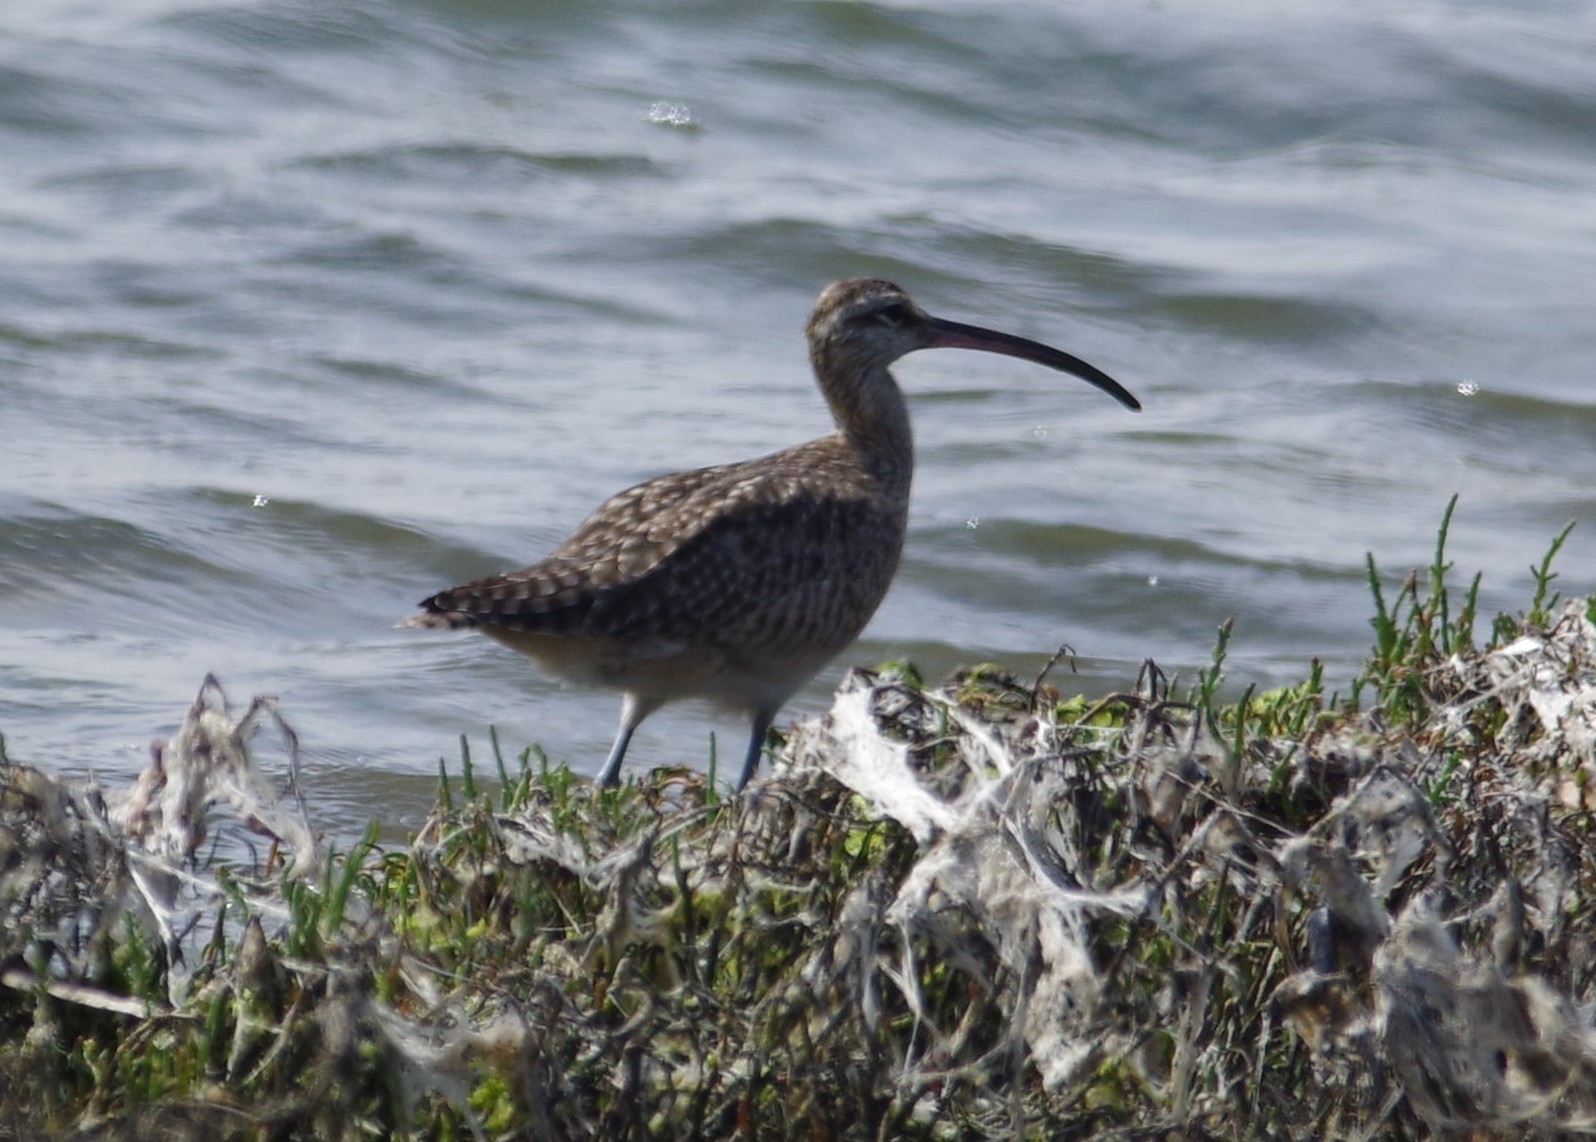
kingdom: Animalia
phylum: Chordata
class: Aves
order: Charadriiformes
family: Scolopacidae
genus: Numenius
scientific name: Numenius phaeopus
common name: Whimbrel
